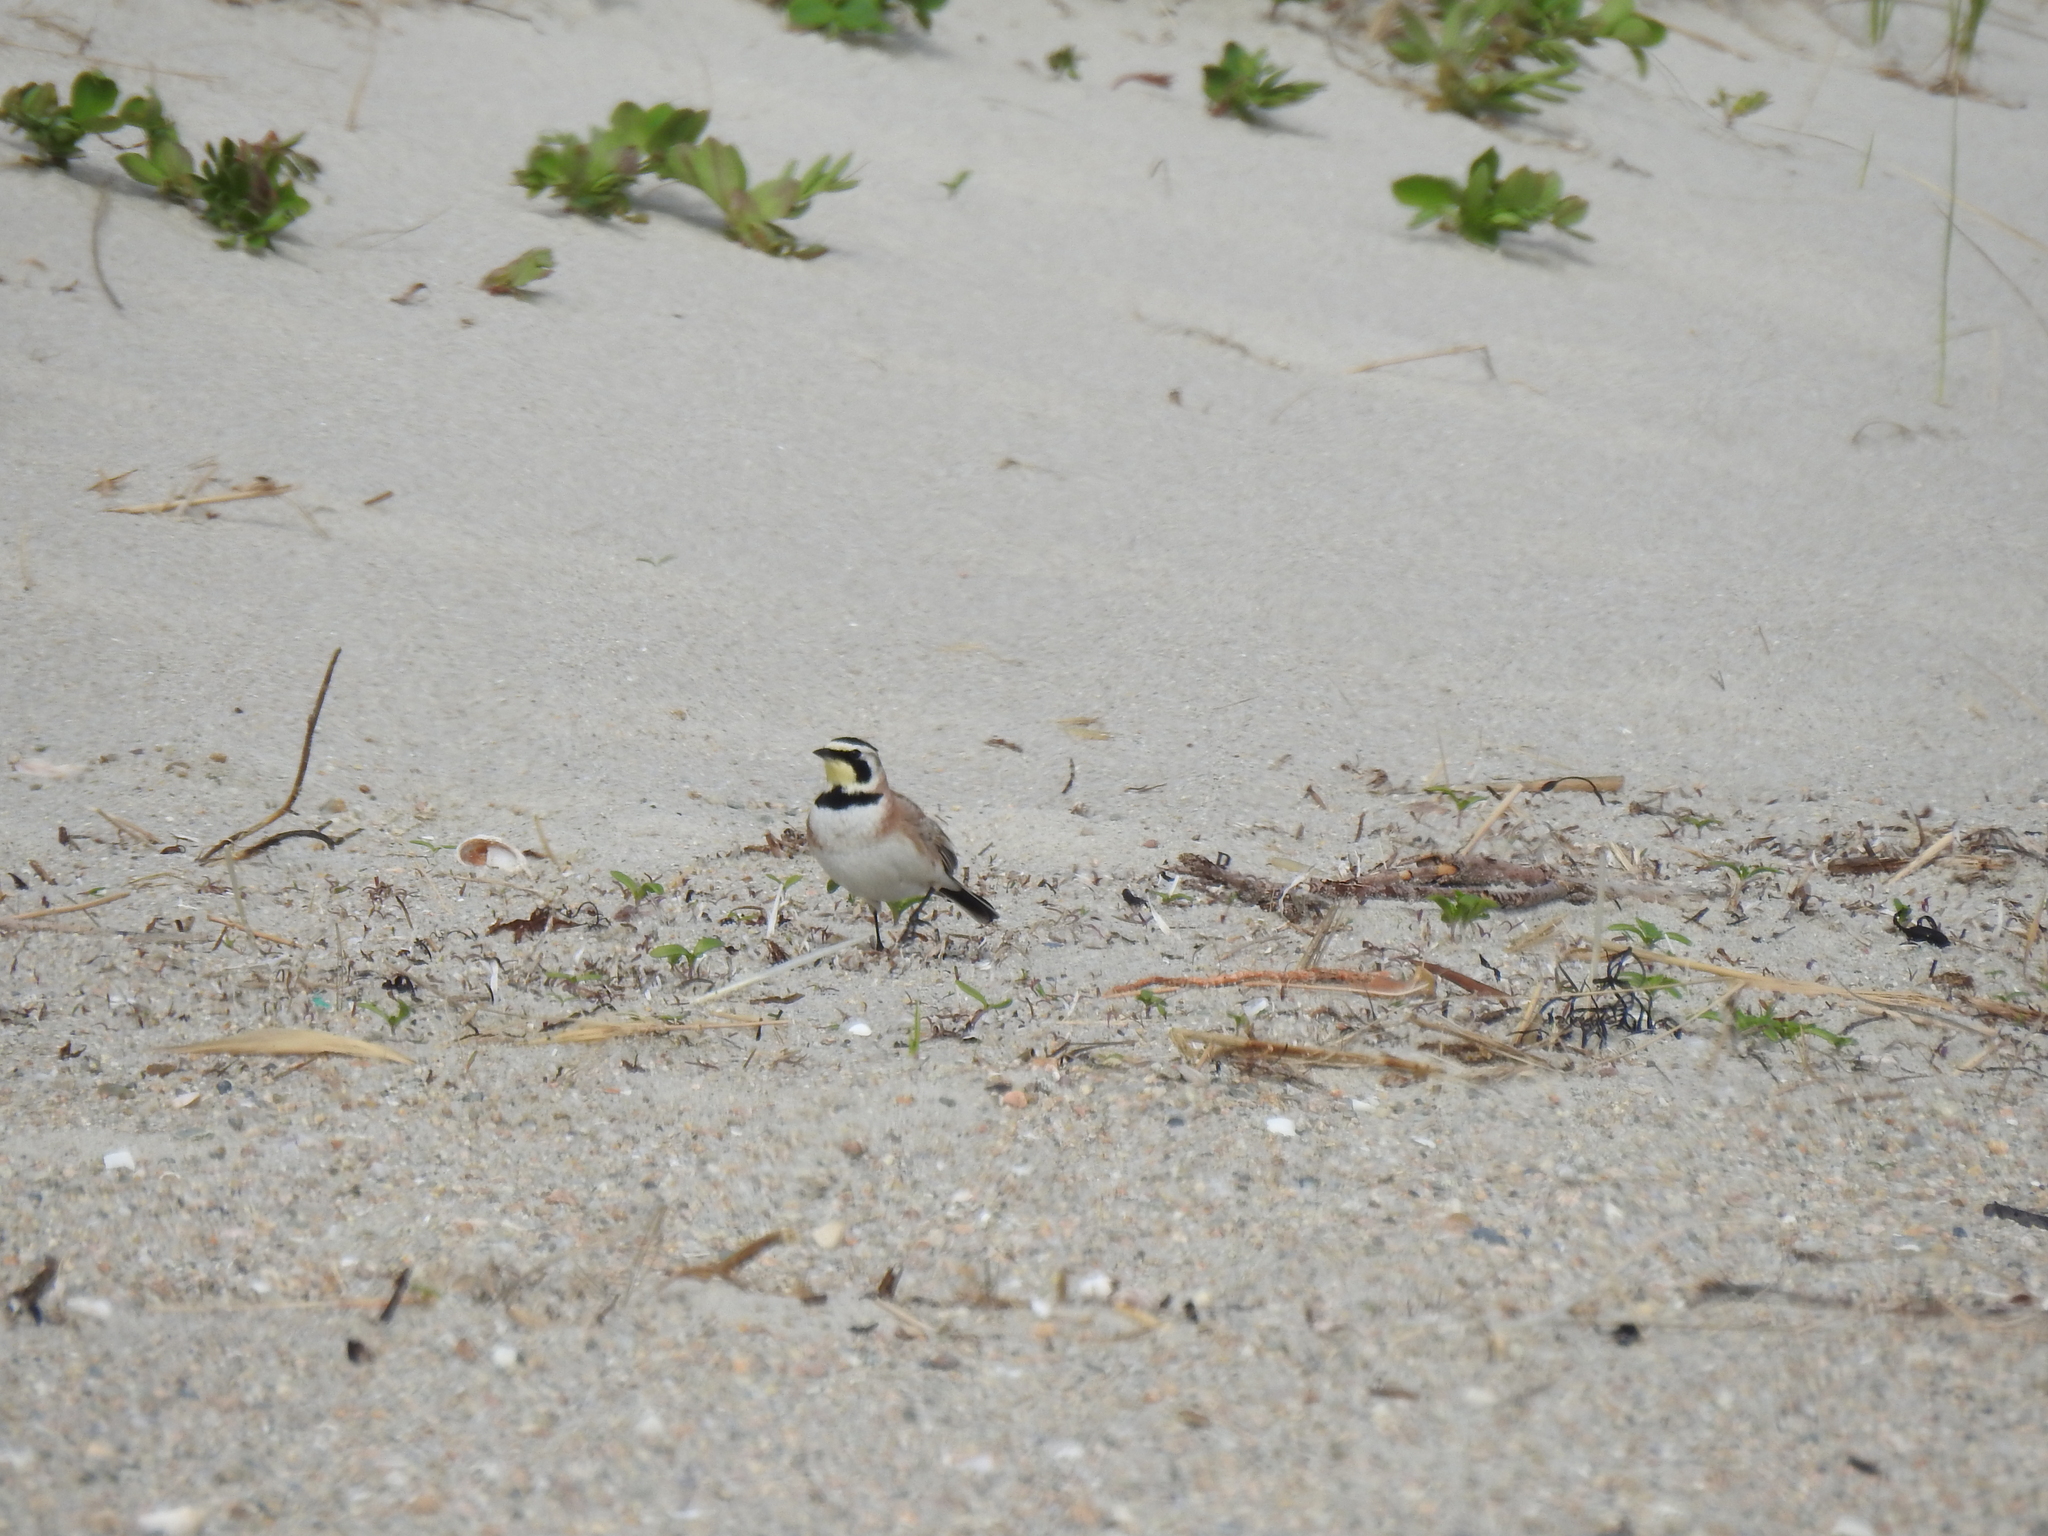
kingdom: Animalia
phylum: Chordata
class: Aves
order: Passeriformes
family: Alaudidae
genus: Eremophila
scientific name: Eremophila alpestris
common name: Horned lark
